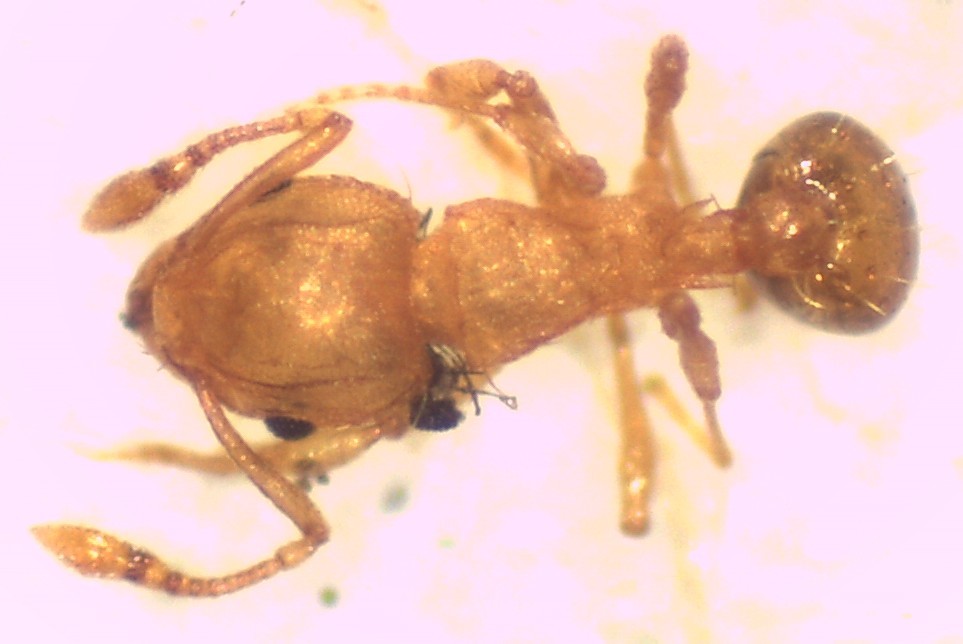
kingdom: Animalia
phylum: Arthropoda
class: Insecta
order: Hymenoptera
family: Formicidae
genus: Wasmannia
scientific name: Wasmannia auropunctata
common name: Little fire ant
